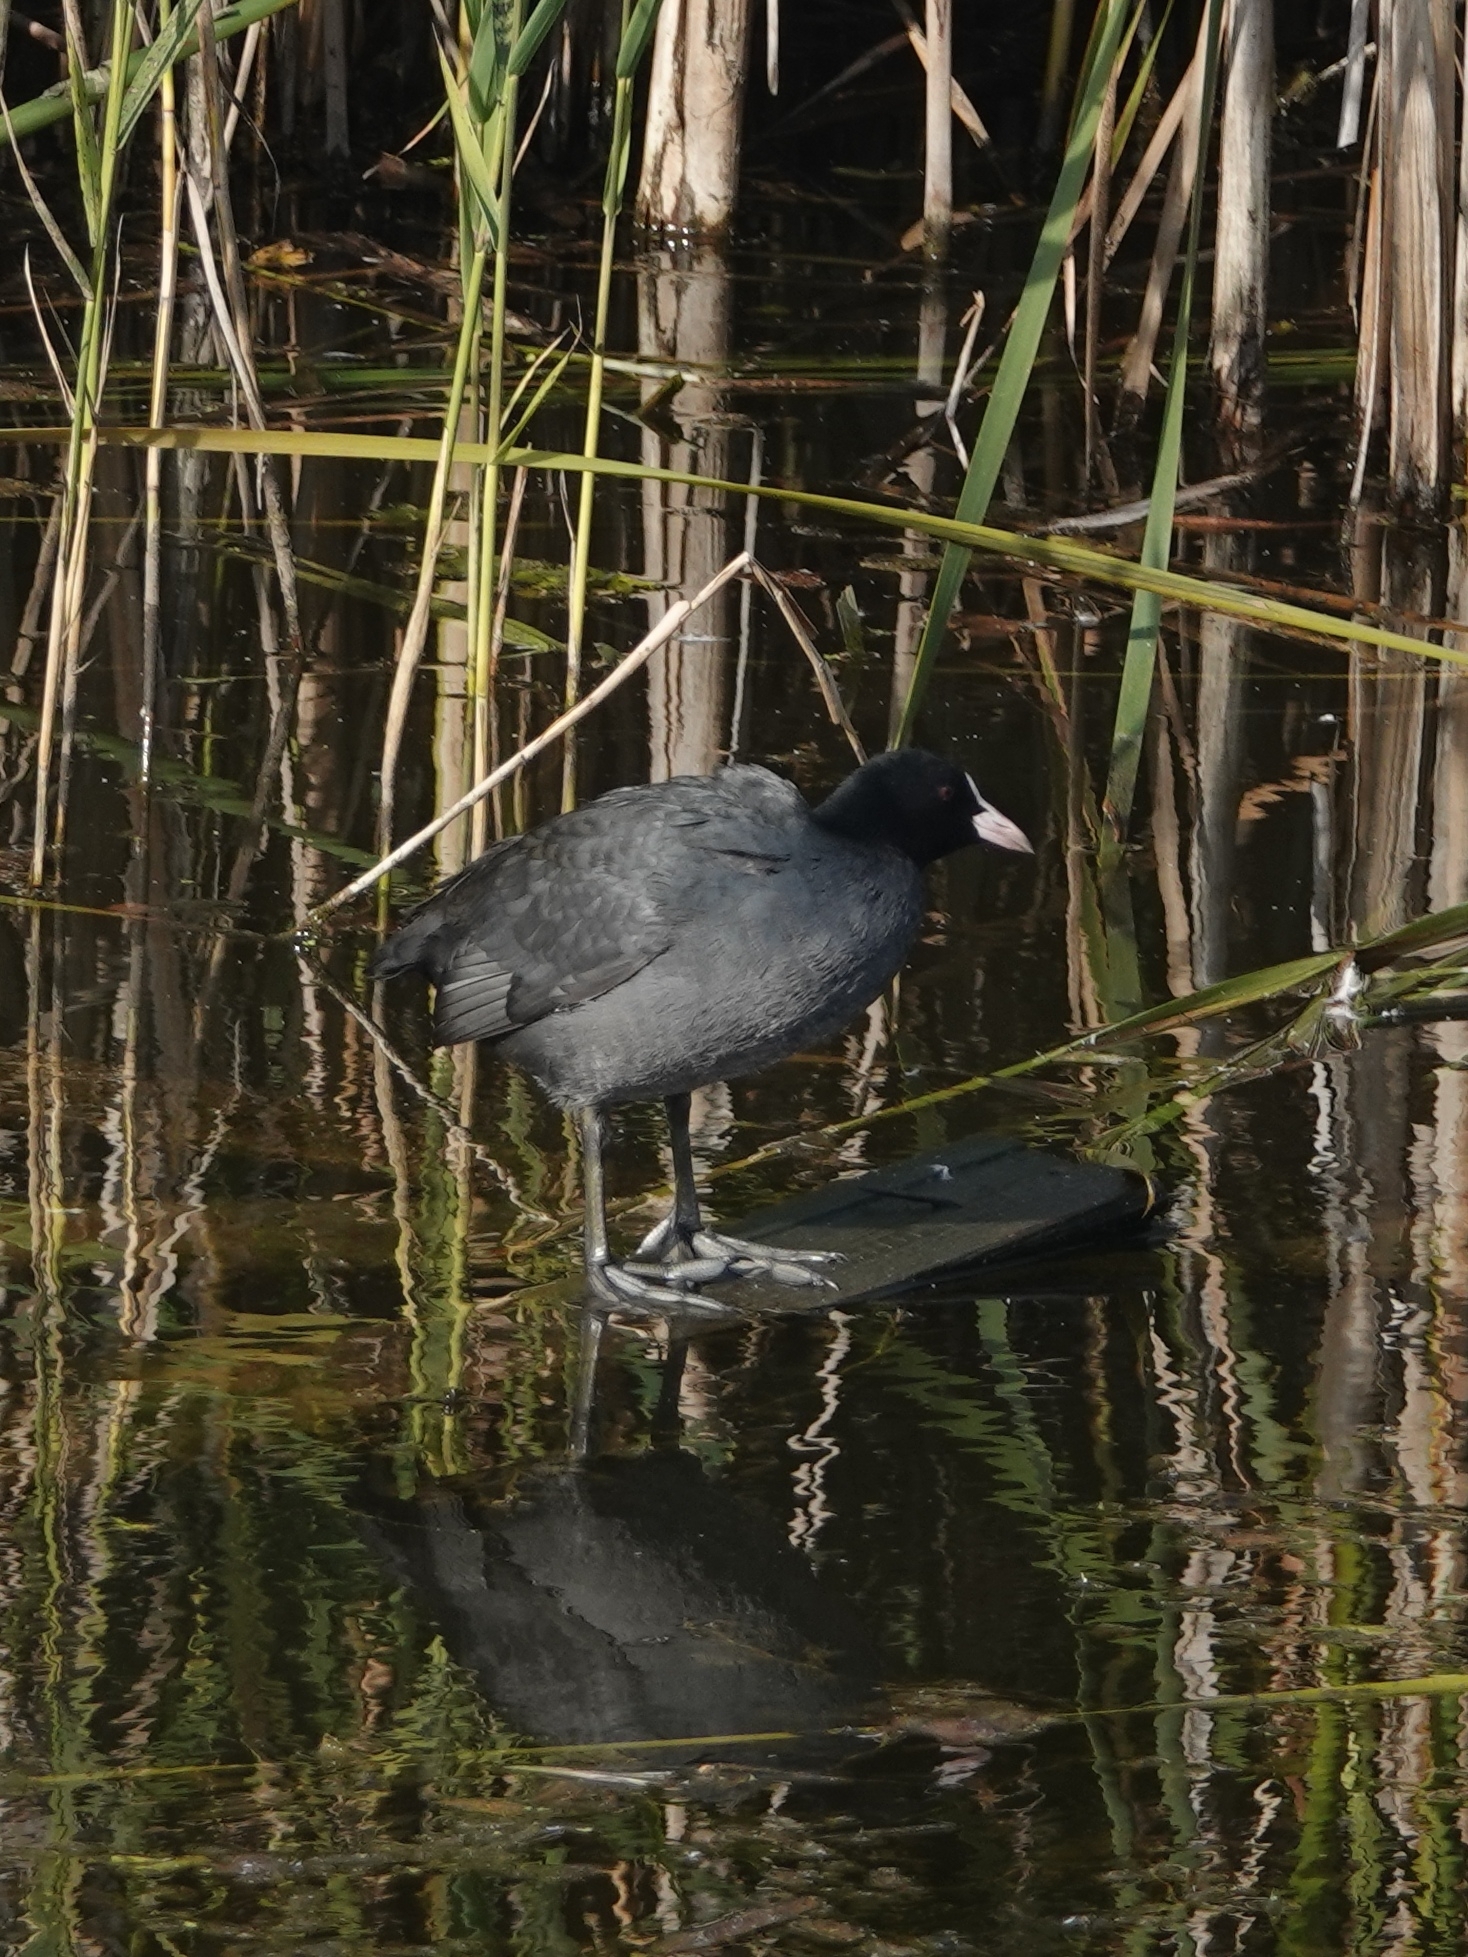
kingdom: Animalia
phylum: Chordata
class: Aves
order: Gruiformes
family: Rallidae
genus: Fulica
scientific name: Fulica atra
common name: Eurasian coot
